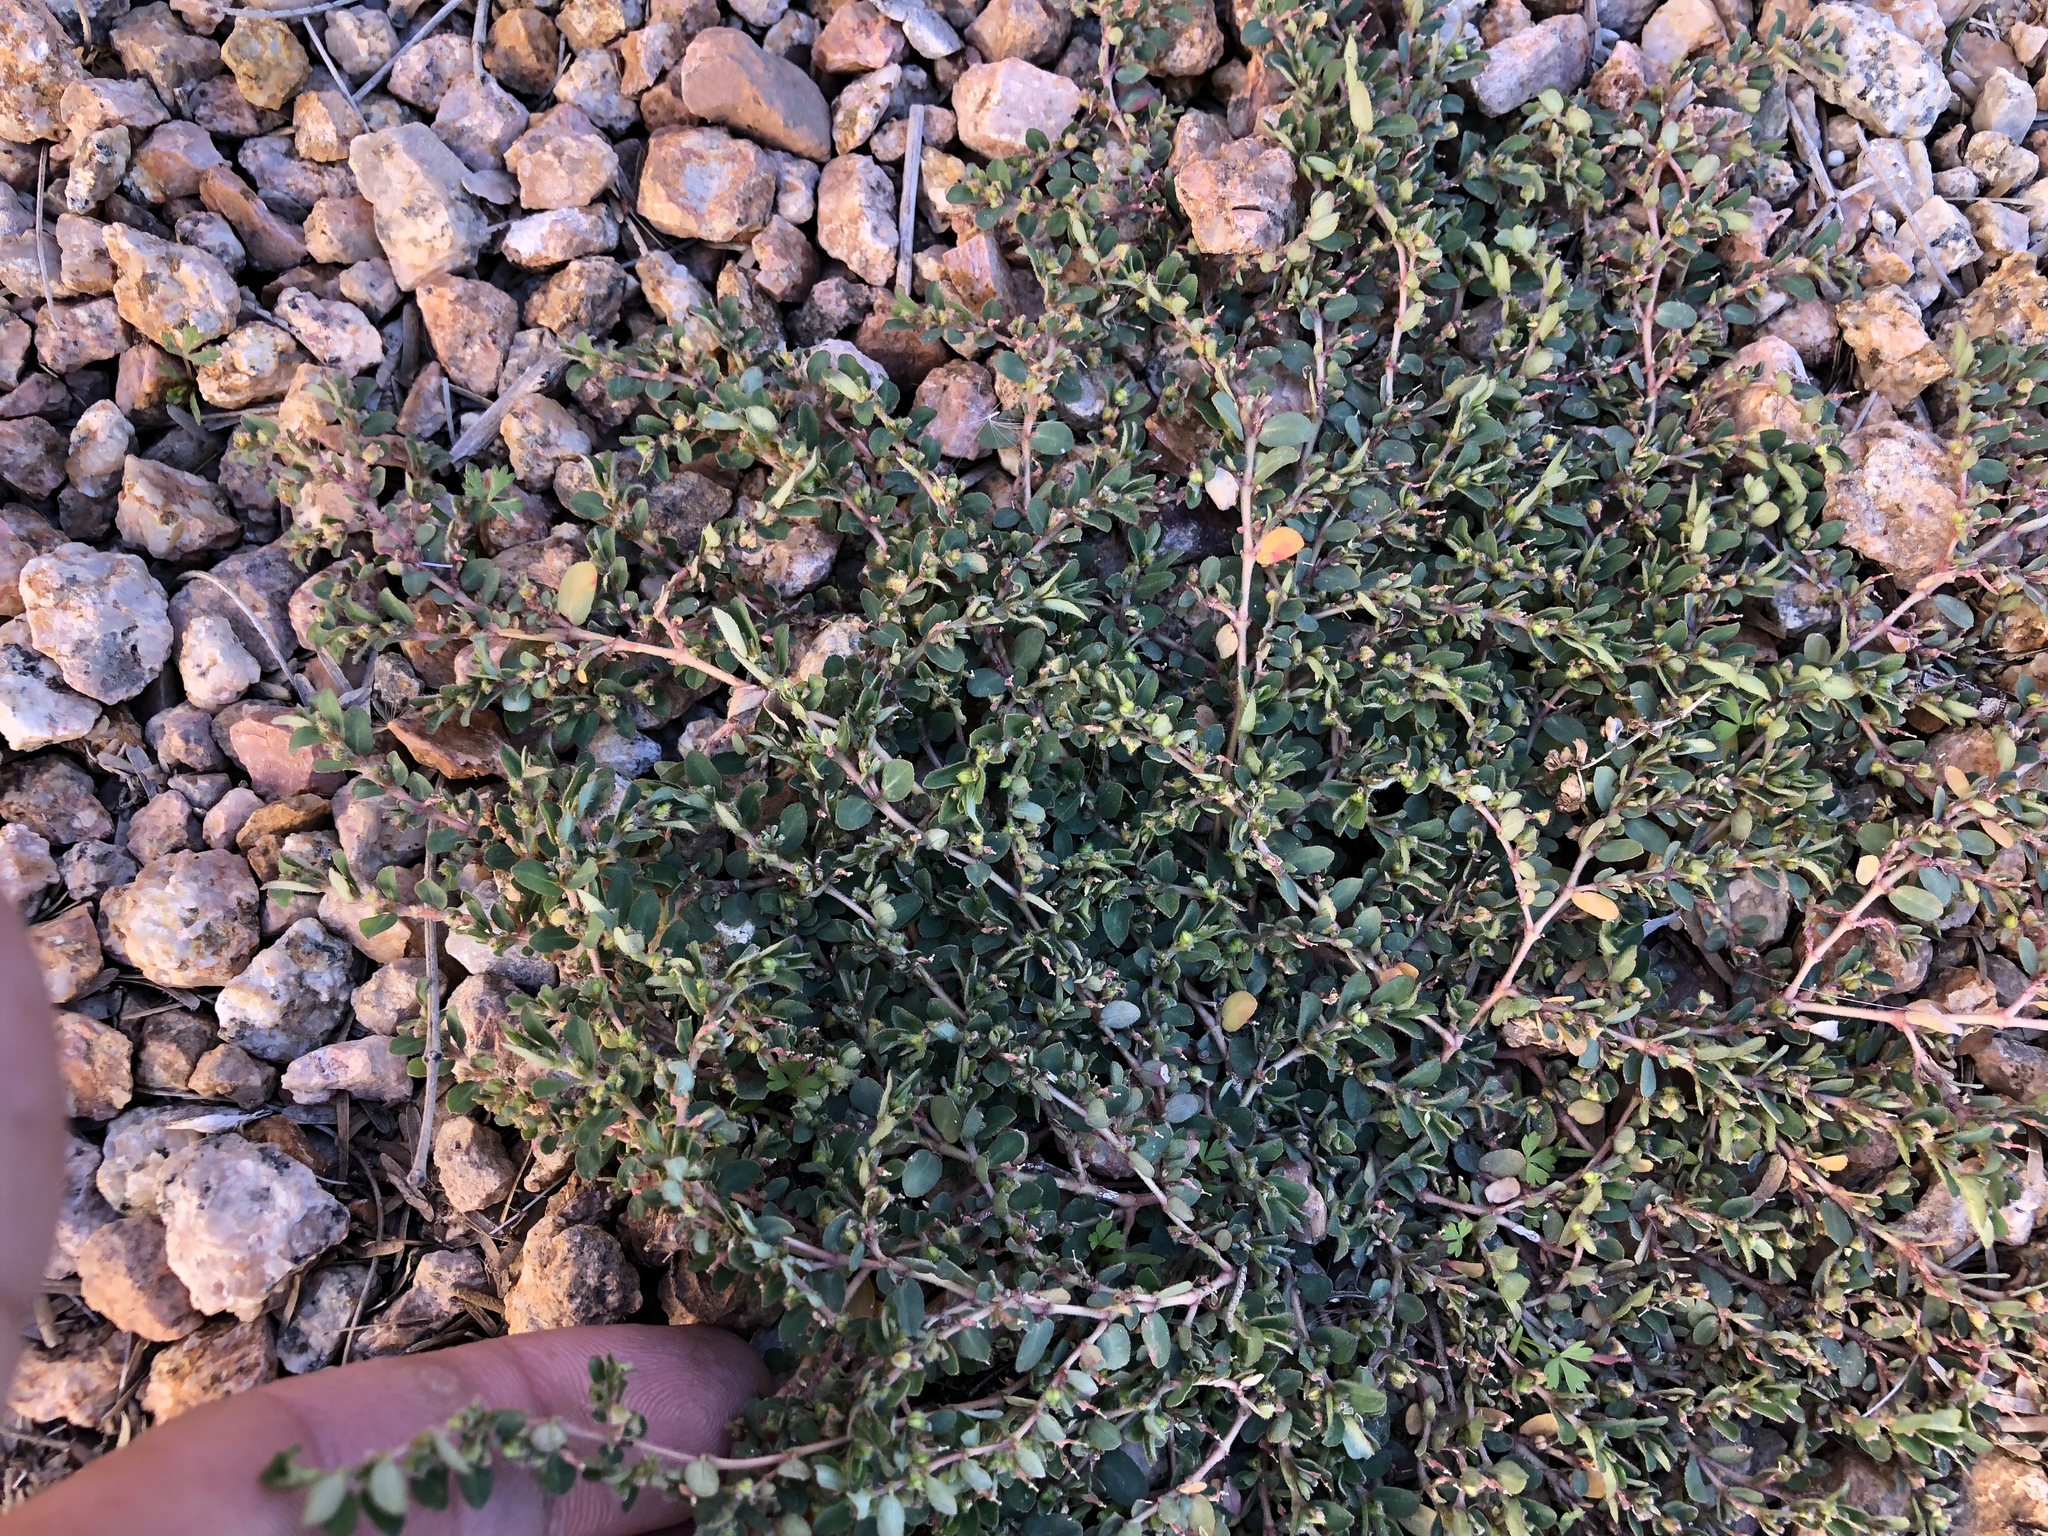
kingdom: Plantae
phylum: Tracheophyta
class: Magnoliopsida
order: Malpighiales
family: Euphorbiaceae
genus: Euphorbia
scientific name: Euphorbia prostrata
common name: Prostrate sandmat
